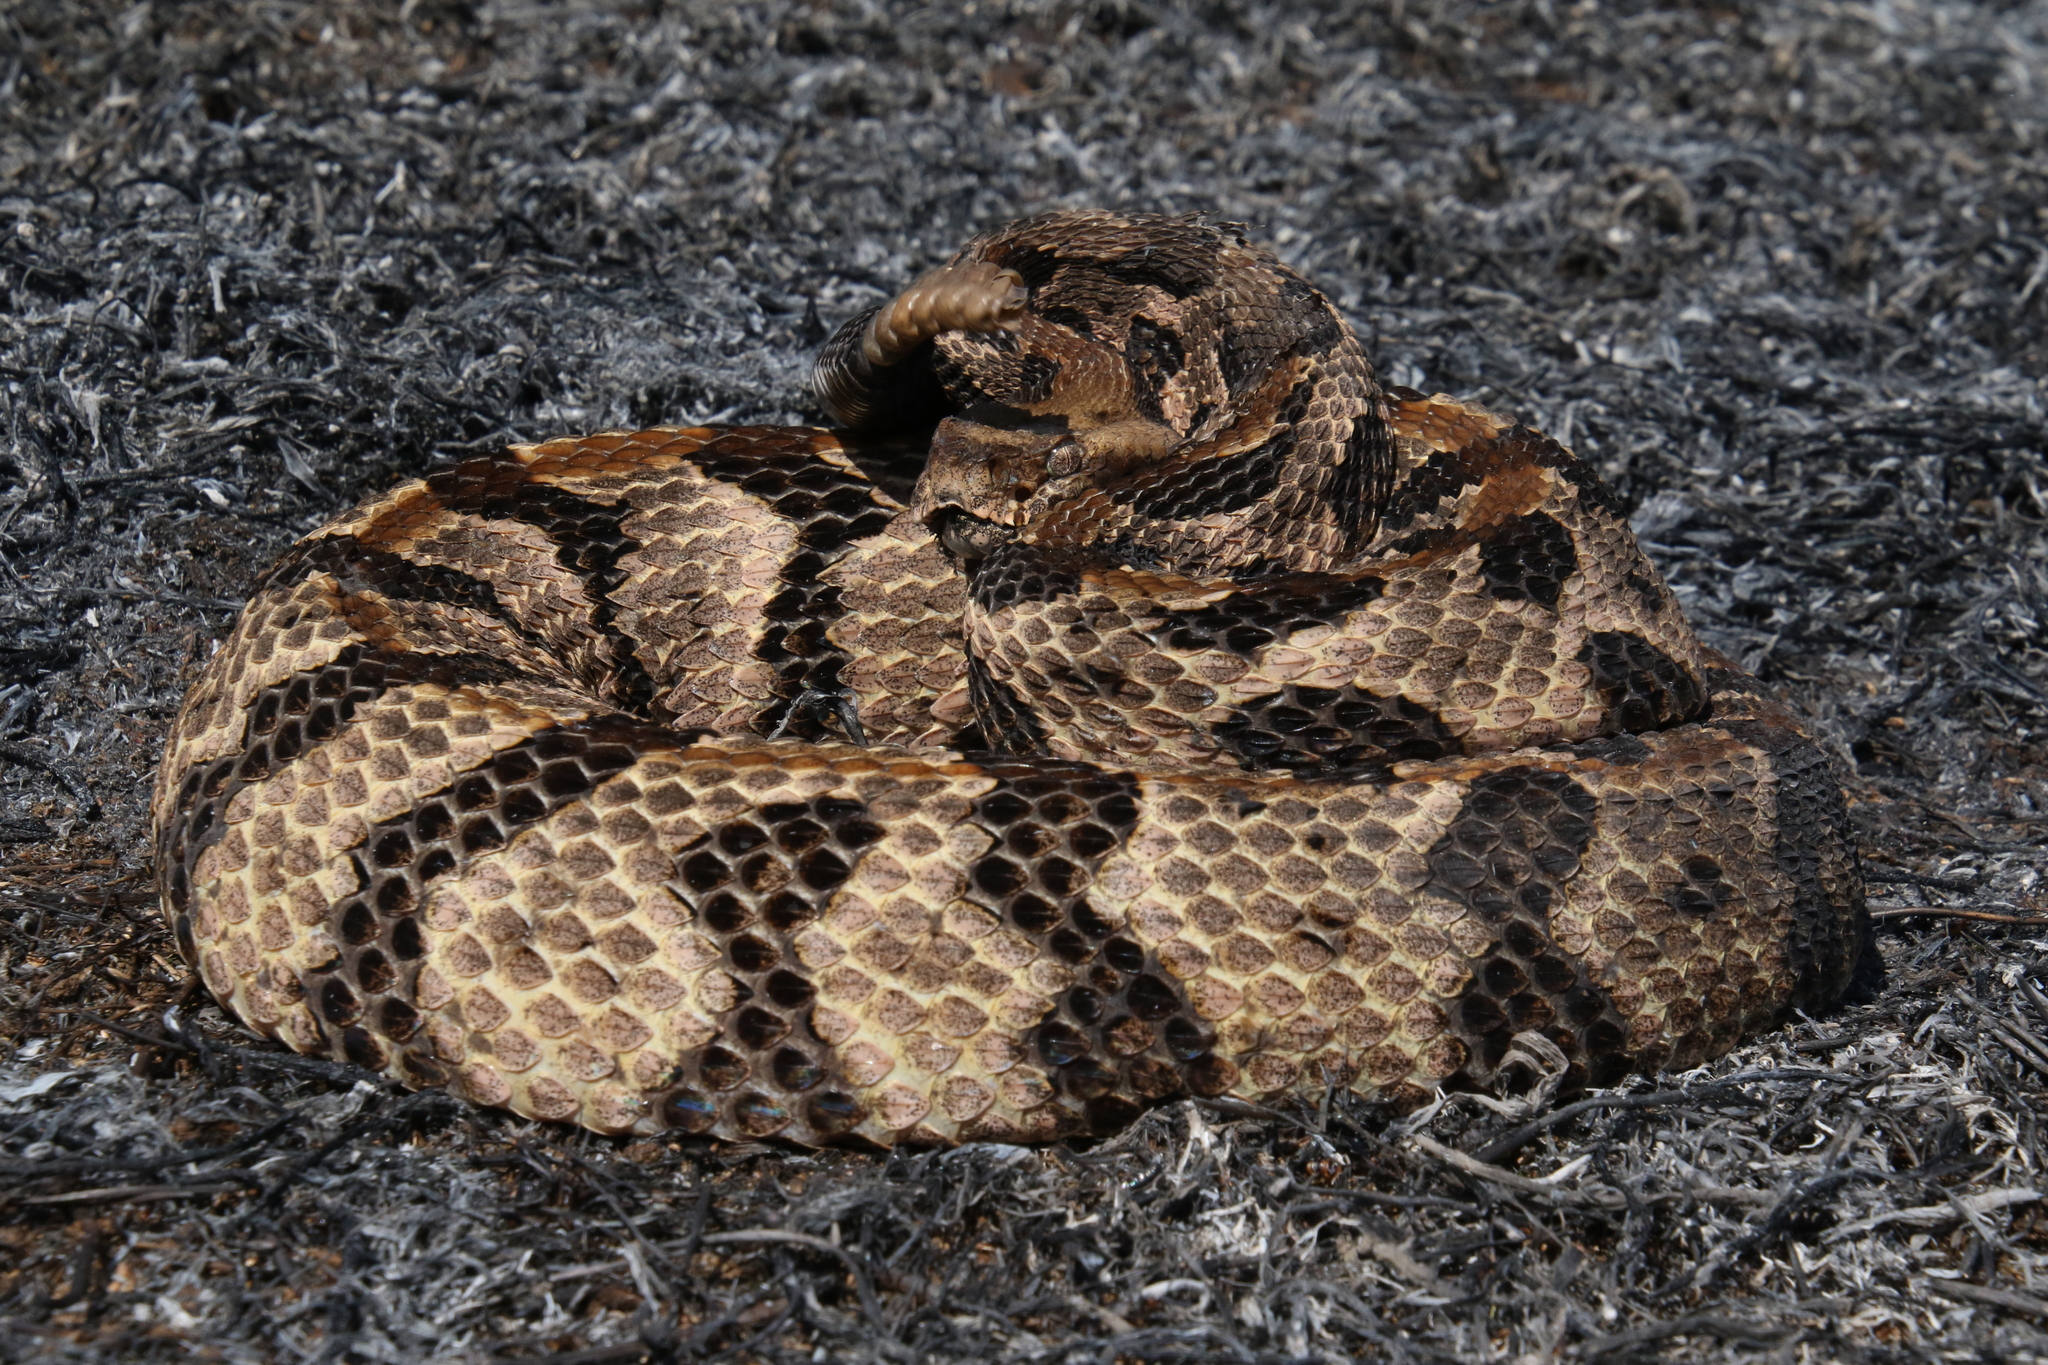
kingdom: Animalia
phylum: Chordata
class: Squamata
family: Viperidae
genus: Crotalus
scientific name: Crotalus horridus
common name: Timber rattlesnake
